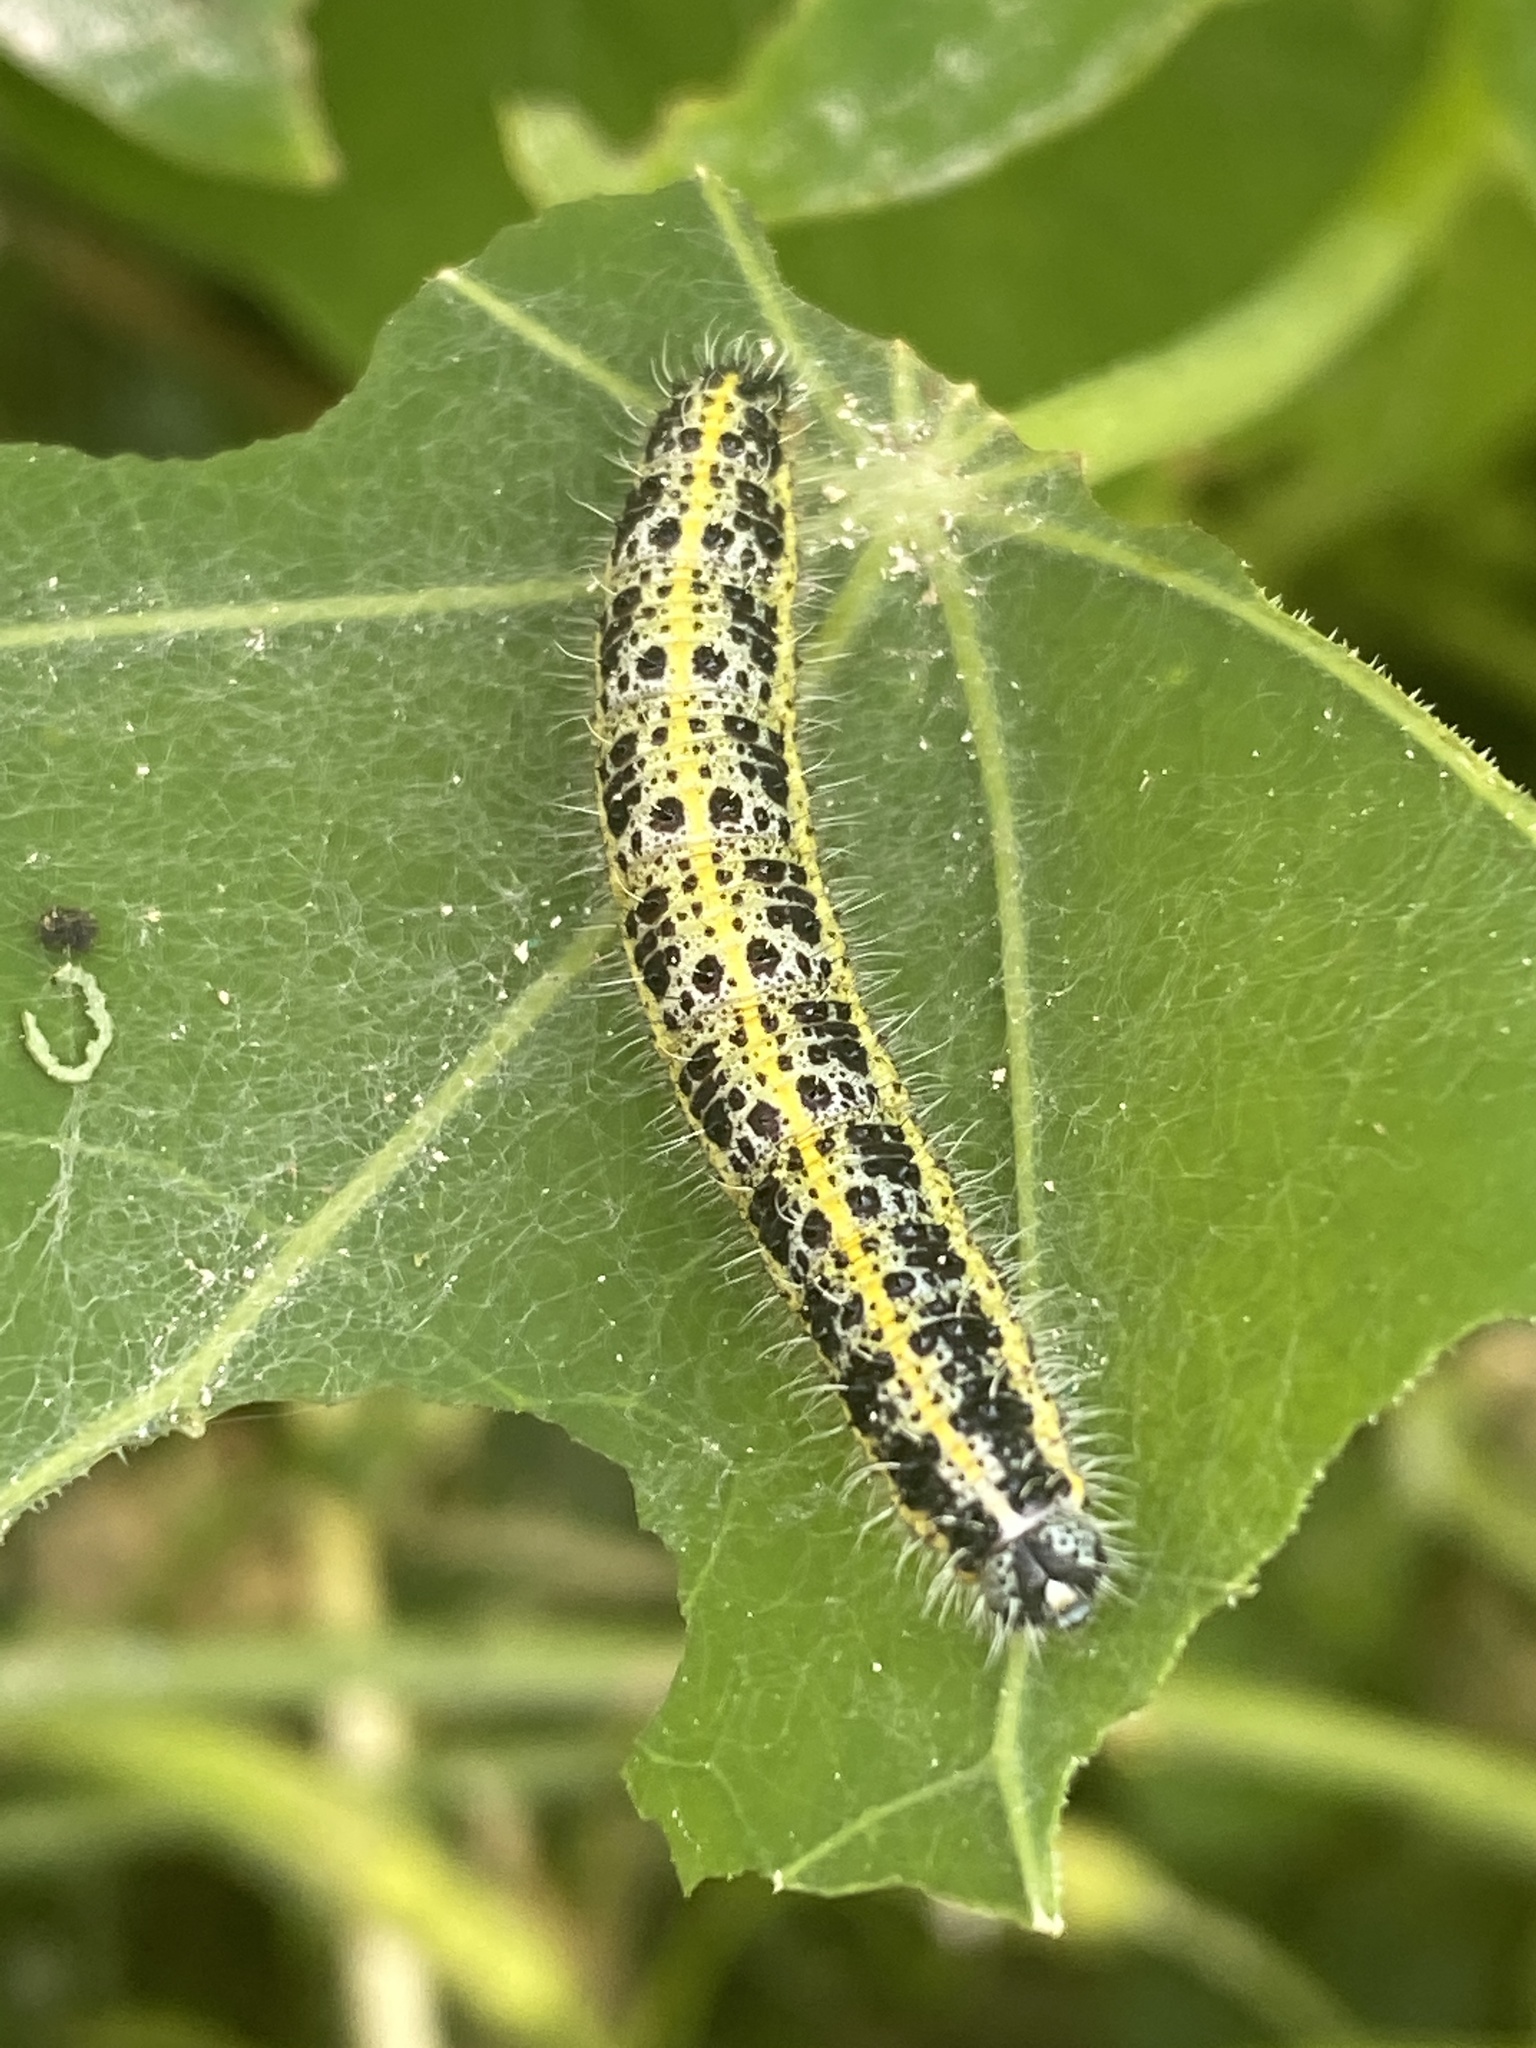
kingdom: Animalia
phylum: Arthropoda
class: Insecta
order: Lepidoptera
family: Pieridae
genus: Pieris
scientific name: Pieris brassicae
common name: Large white
